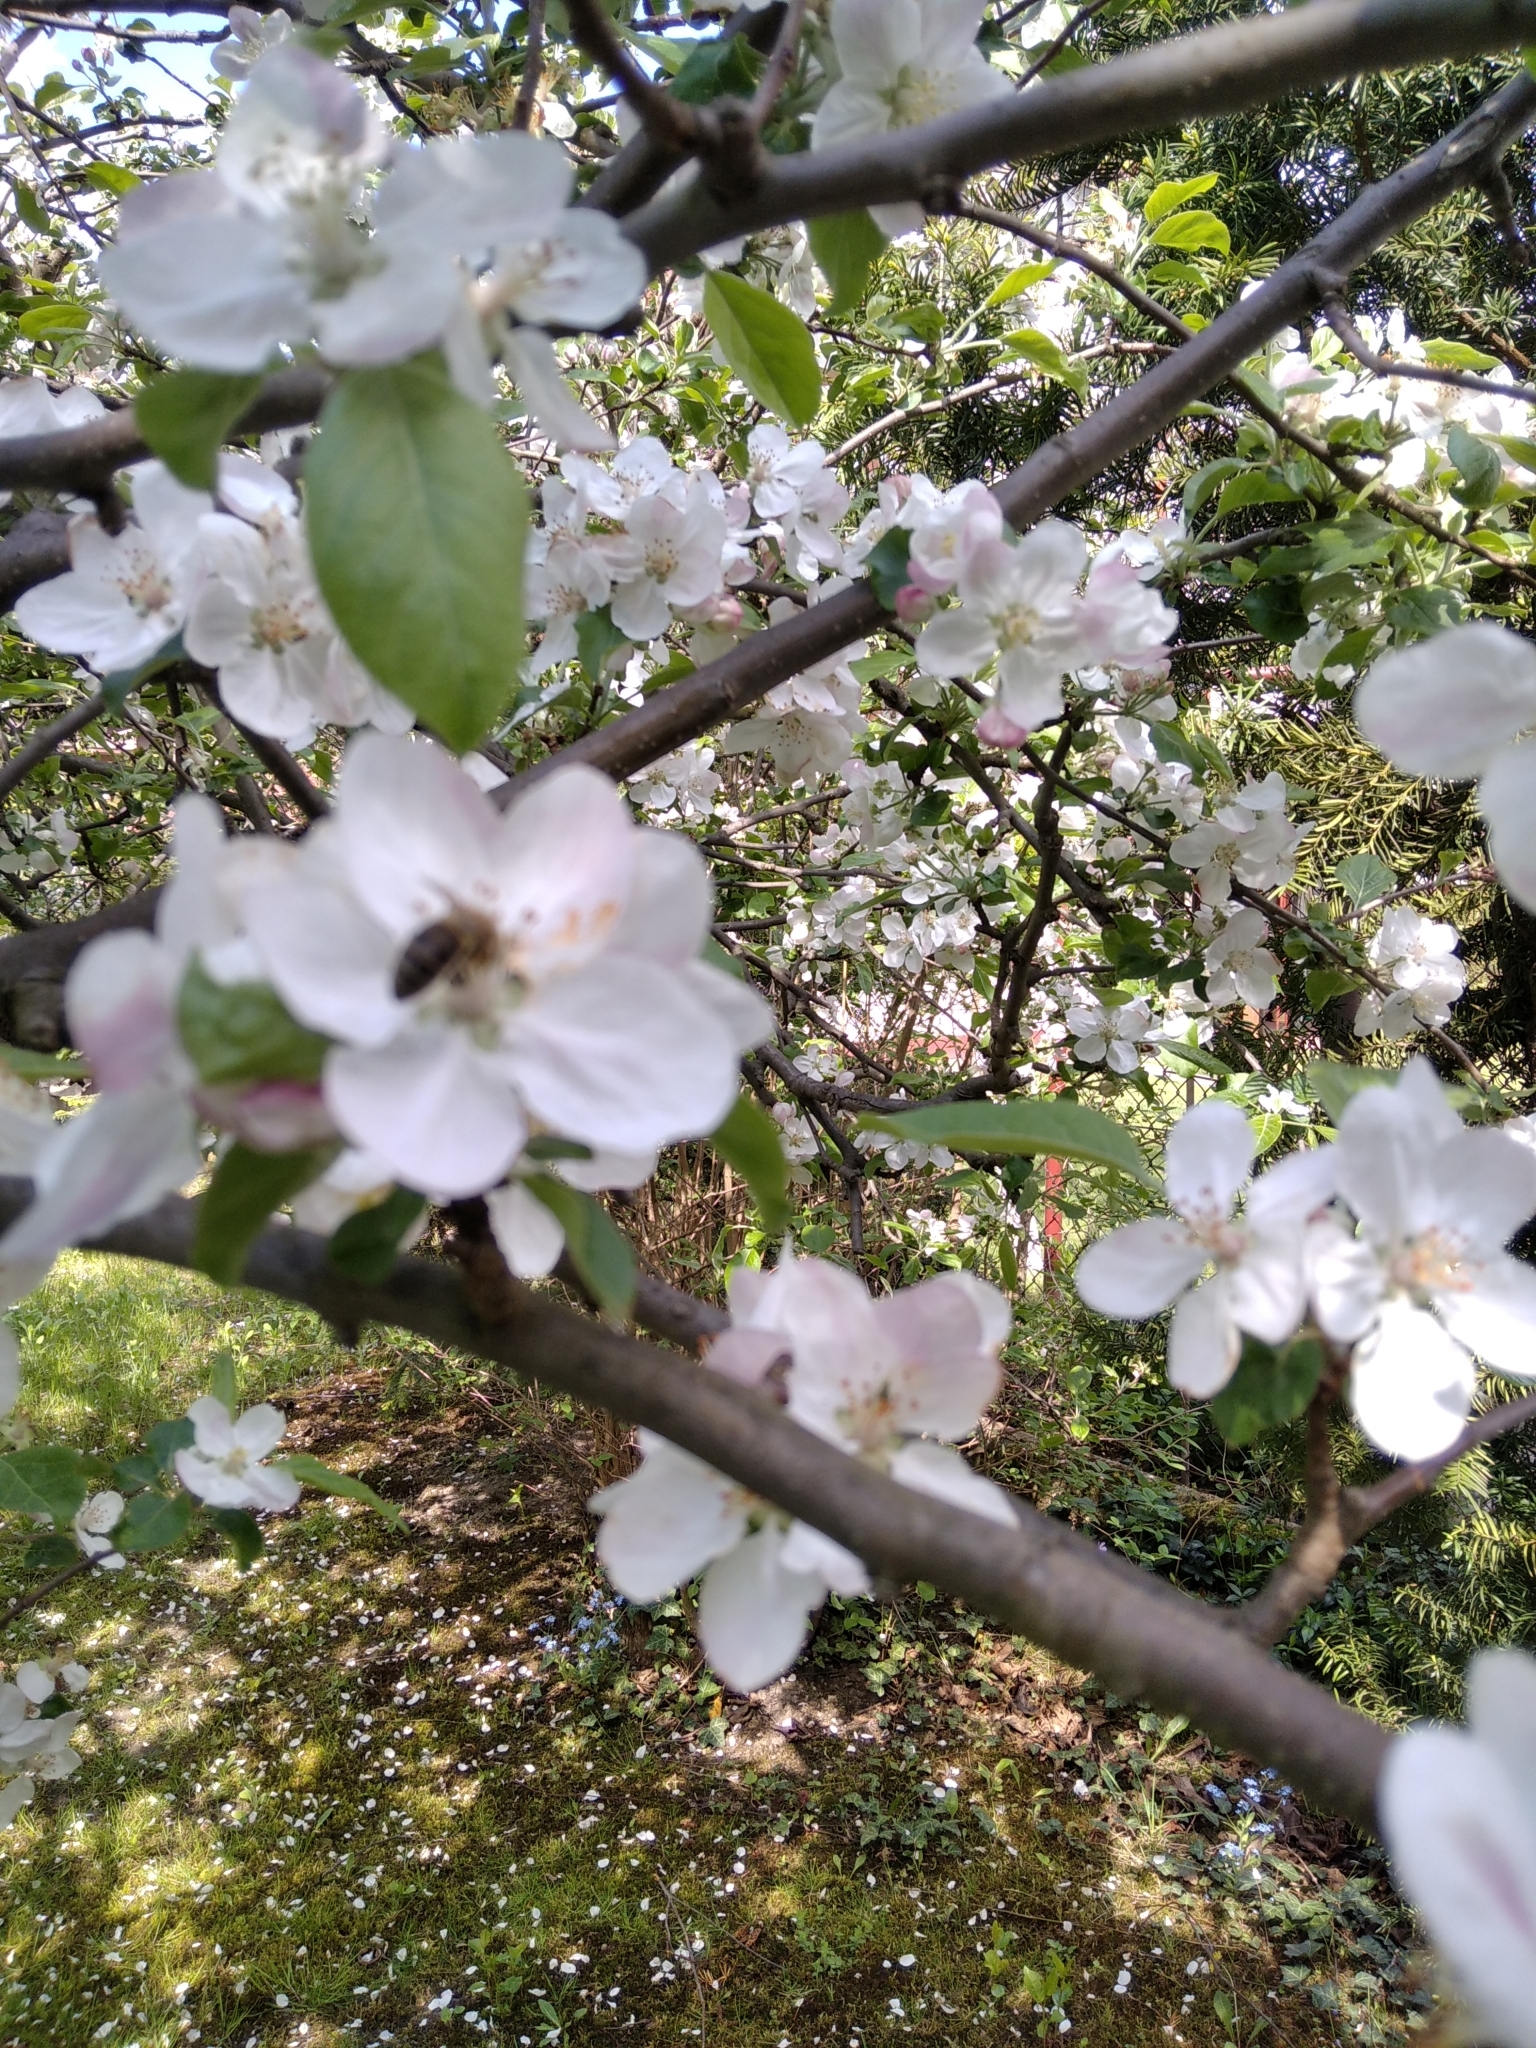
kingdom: Animalia
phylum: Arthropoda
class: Insecta
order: Hymenoptera
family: Apidae
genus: Apis
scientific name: Apis mellifera
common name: Honey bee
